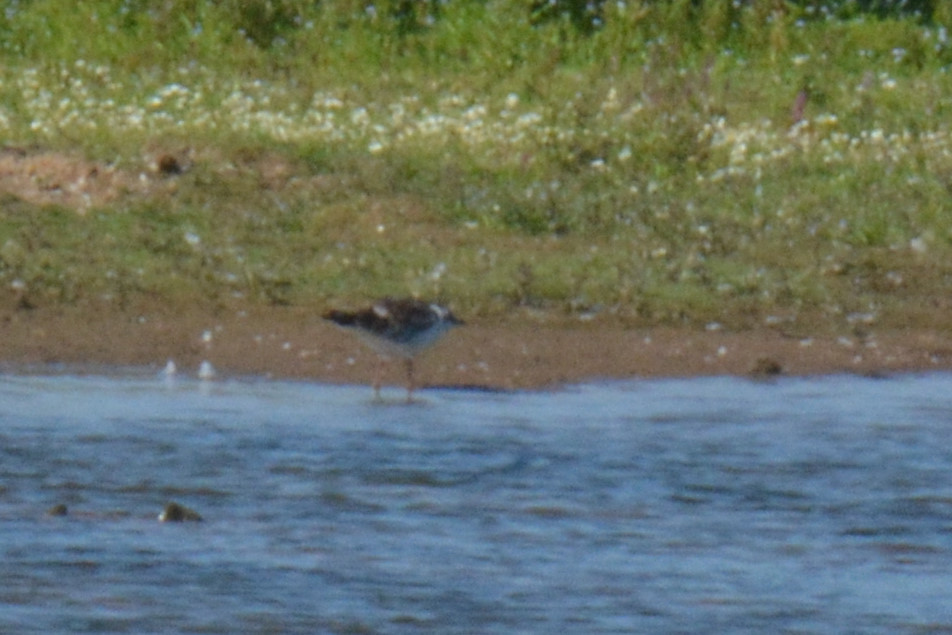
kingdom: Animalia
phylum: Chordata
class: Aves
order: Charadriiformes
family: Laridae
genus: Chroicocephalus
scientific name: Chroicocephalus ridibundus
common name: Black-headed gull
